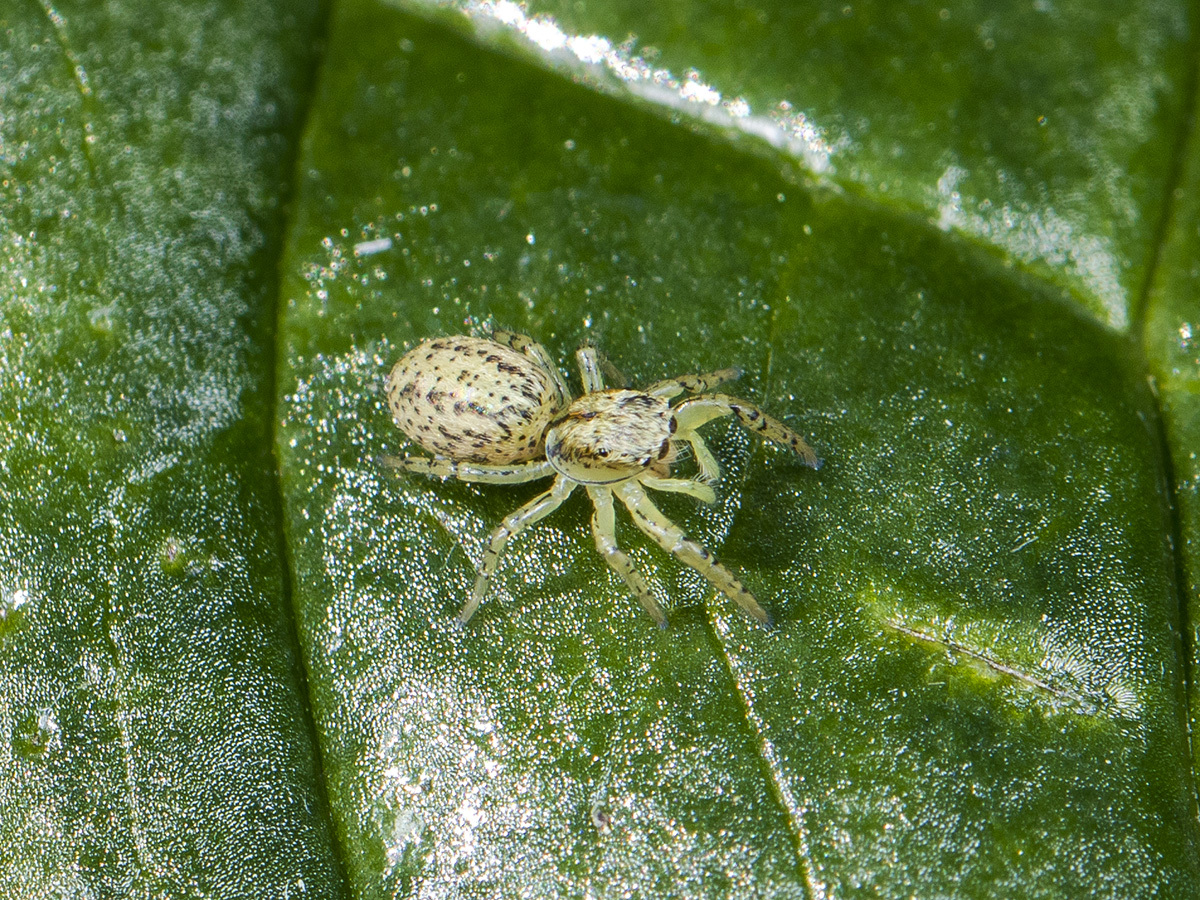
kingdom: Animalia
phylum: Arthropoda
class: Arachnida
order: Araneae
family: Salticidae
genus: Marpissa
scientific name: Marpissa pomatia
